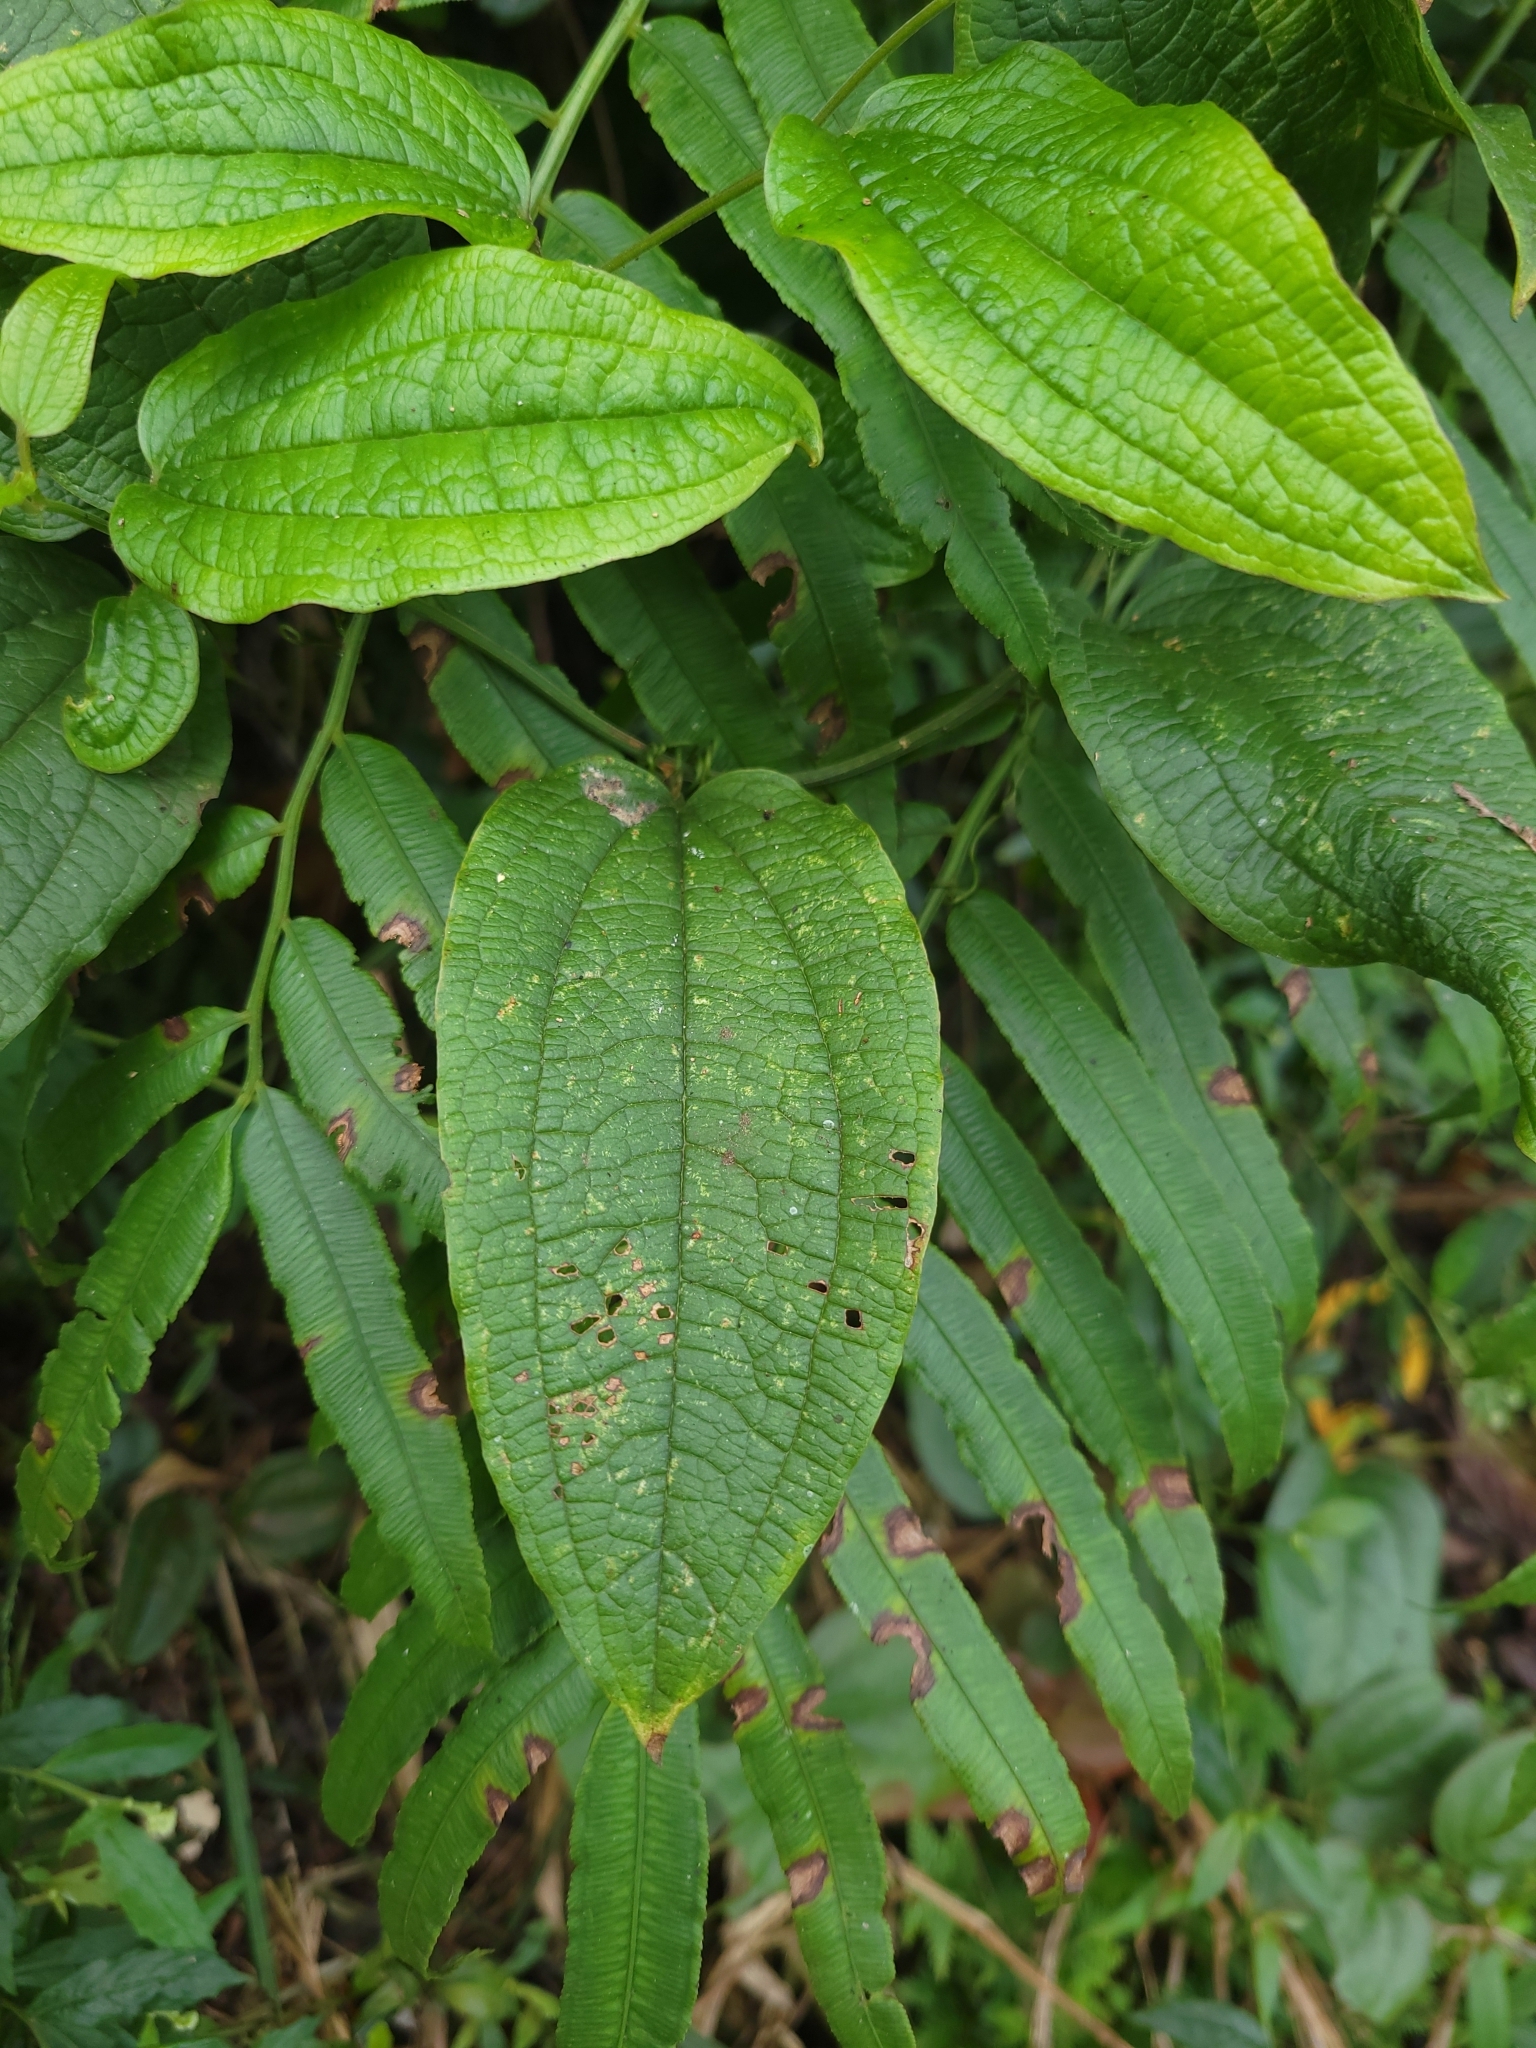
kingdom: Plantae
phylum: Tracheophyta
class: Liliopsida
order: Liliales
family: Smilacaceae
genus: Smilax
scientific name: Smilax riparia
